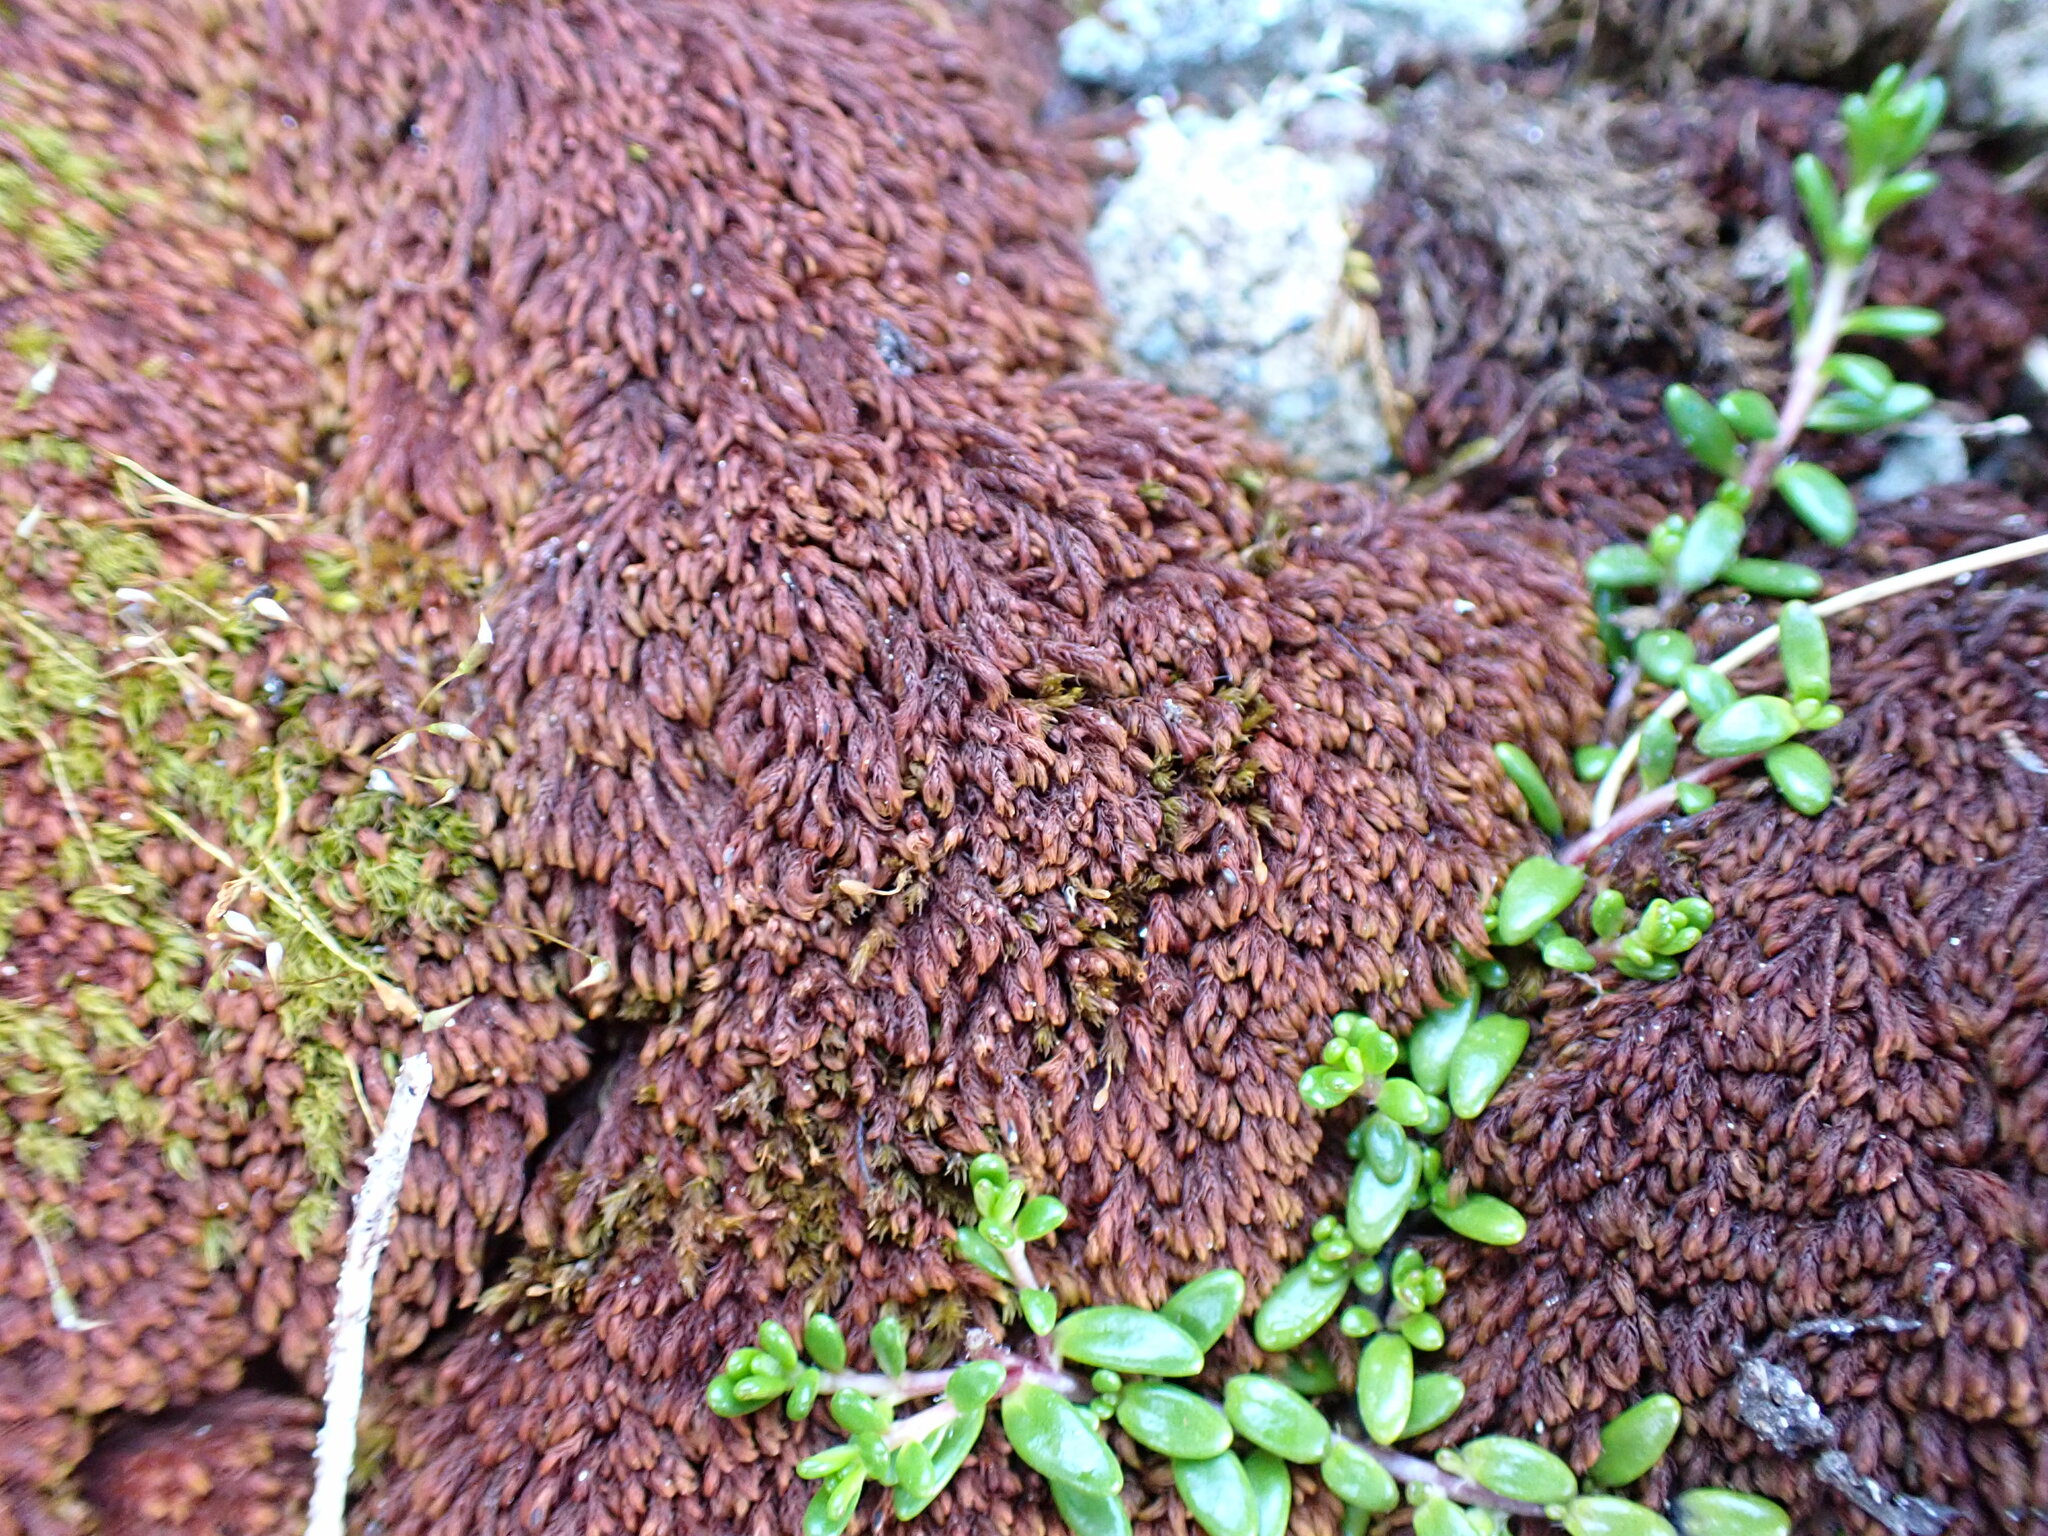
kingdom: Plantae
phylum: Tracheophyta
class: Magnoliopsida
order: Saxifragales
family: Saxifragaceae
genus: Micranthes
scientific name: Micranthes tolmiei
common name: Tolmie's saxifrage
